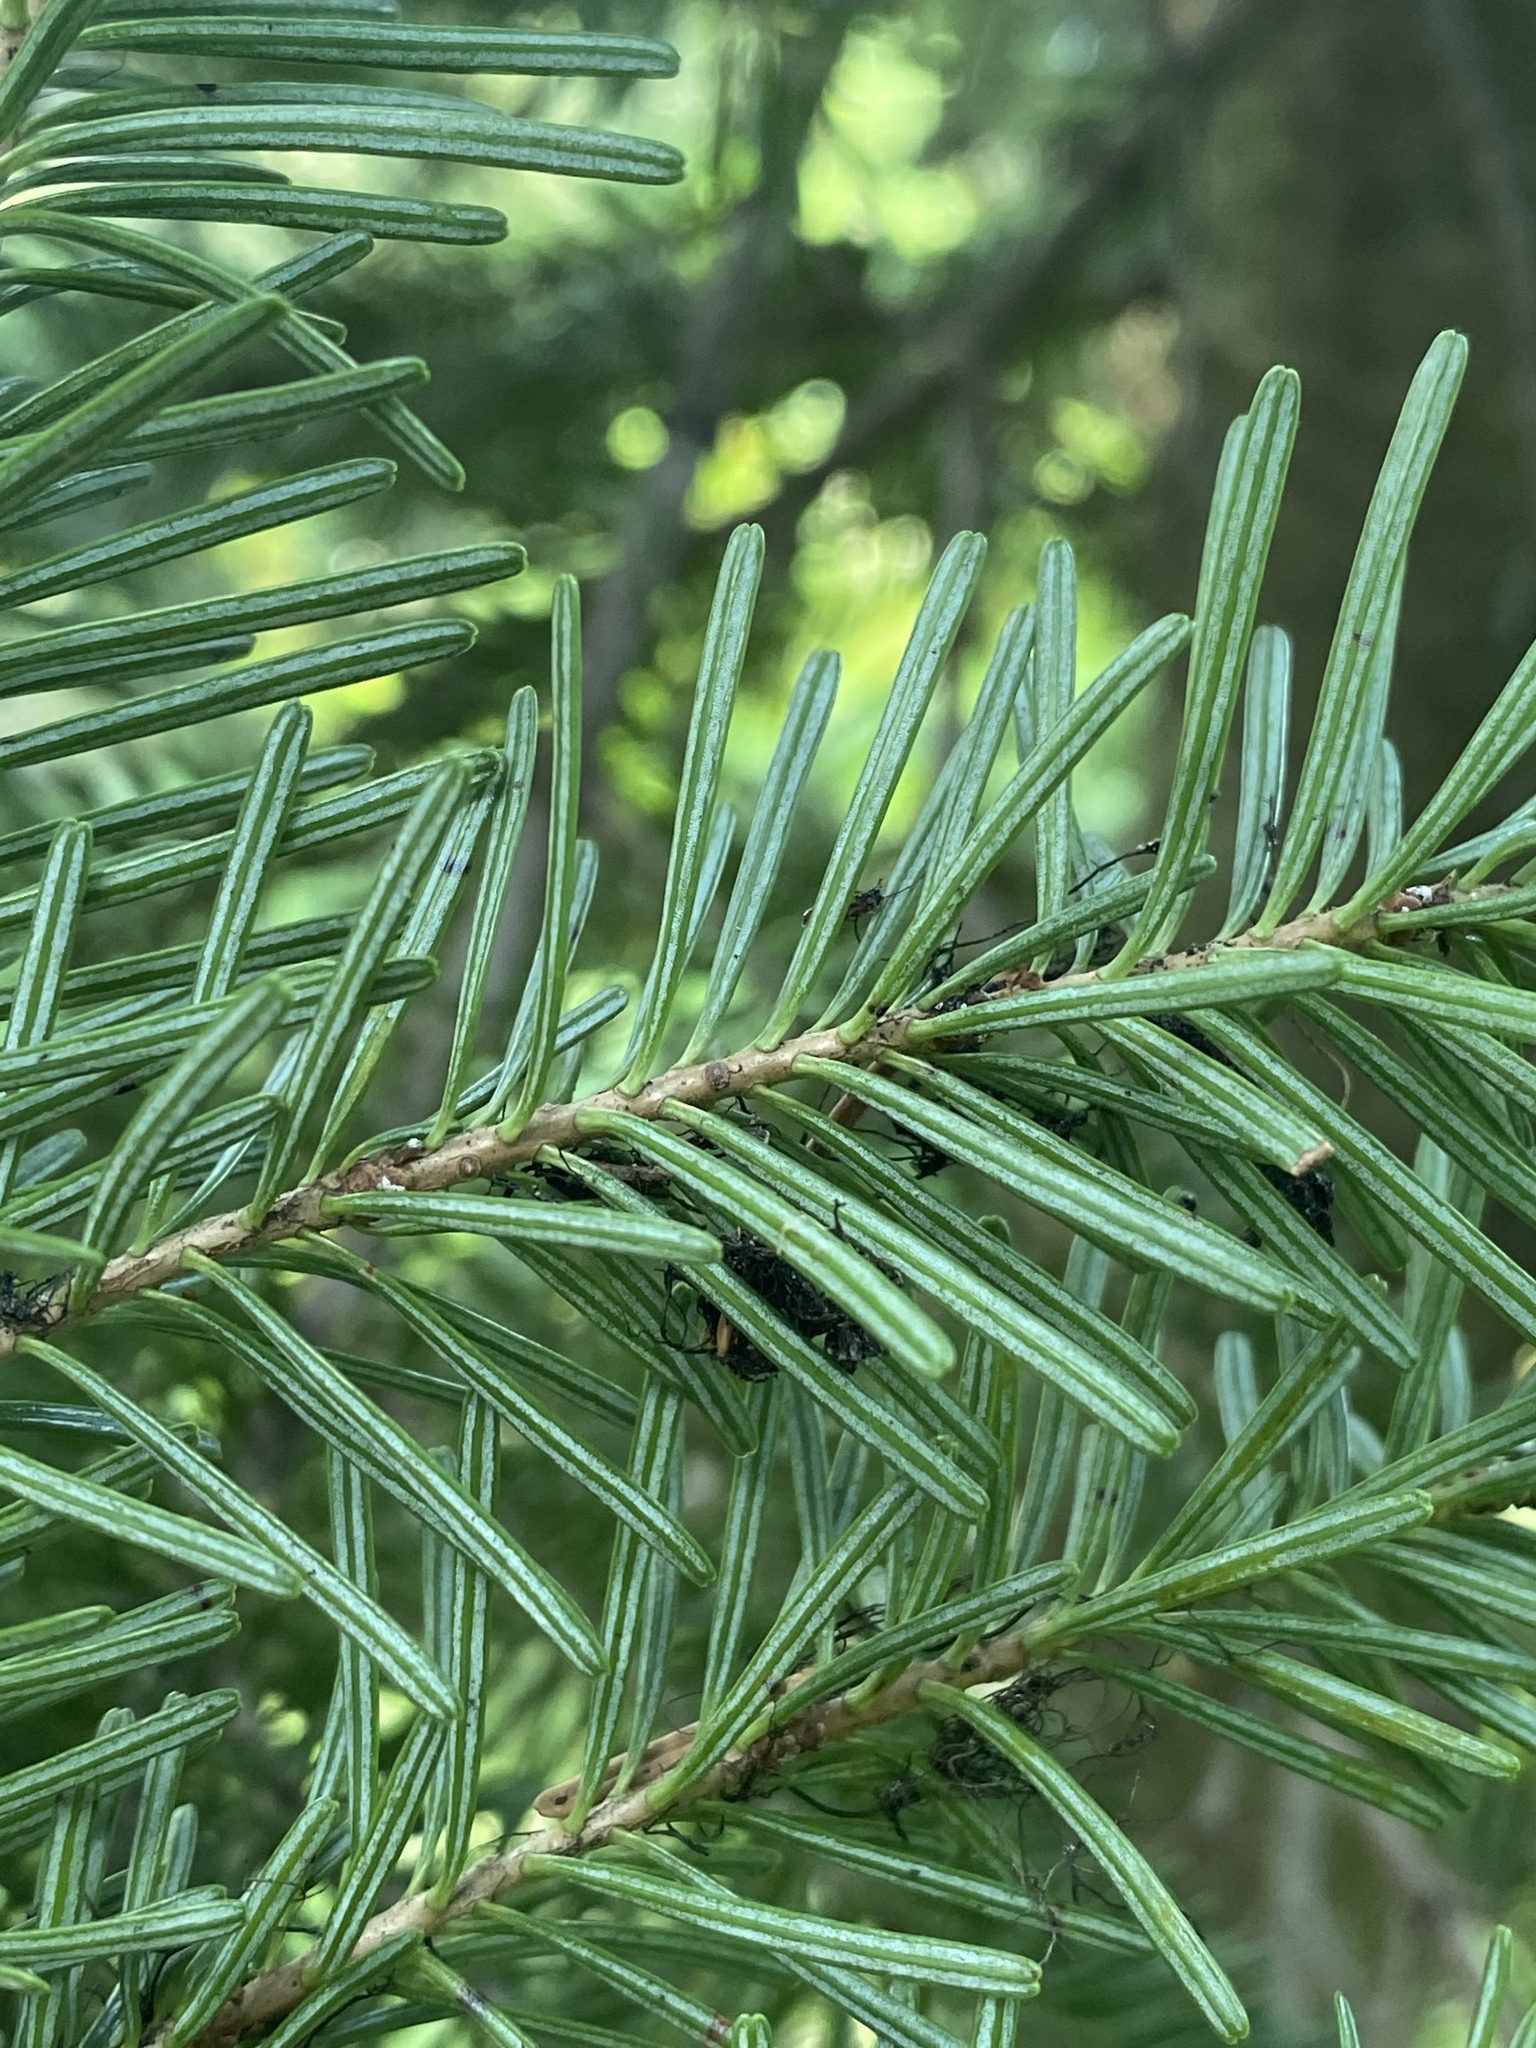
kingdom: Plantae
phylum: Tracheophyta
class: Pinopsida
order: Pinales
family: Pinaceae
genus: Abies
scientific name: Abies lasiocarpa
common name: Subalpine fir
